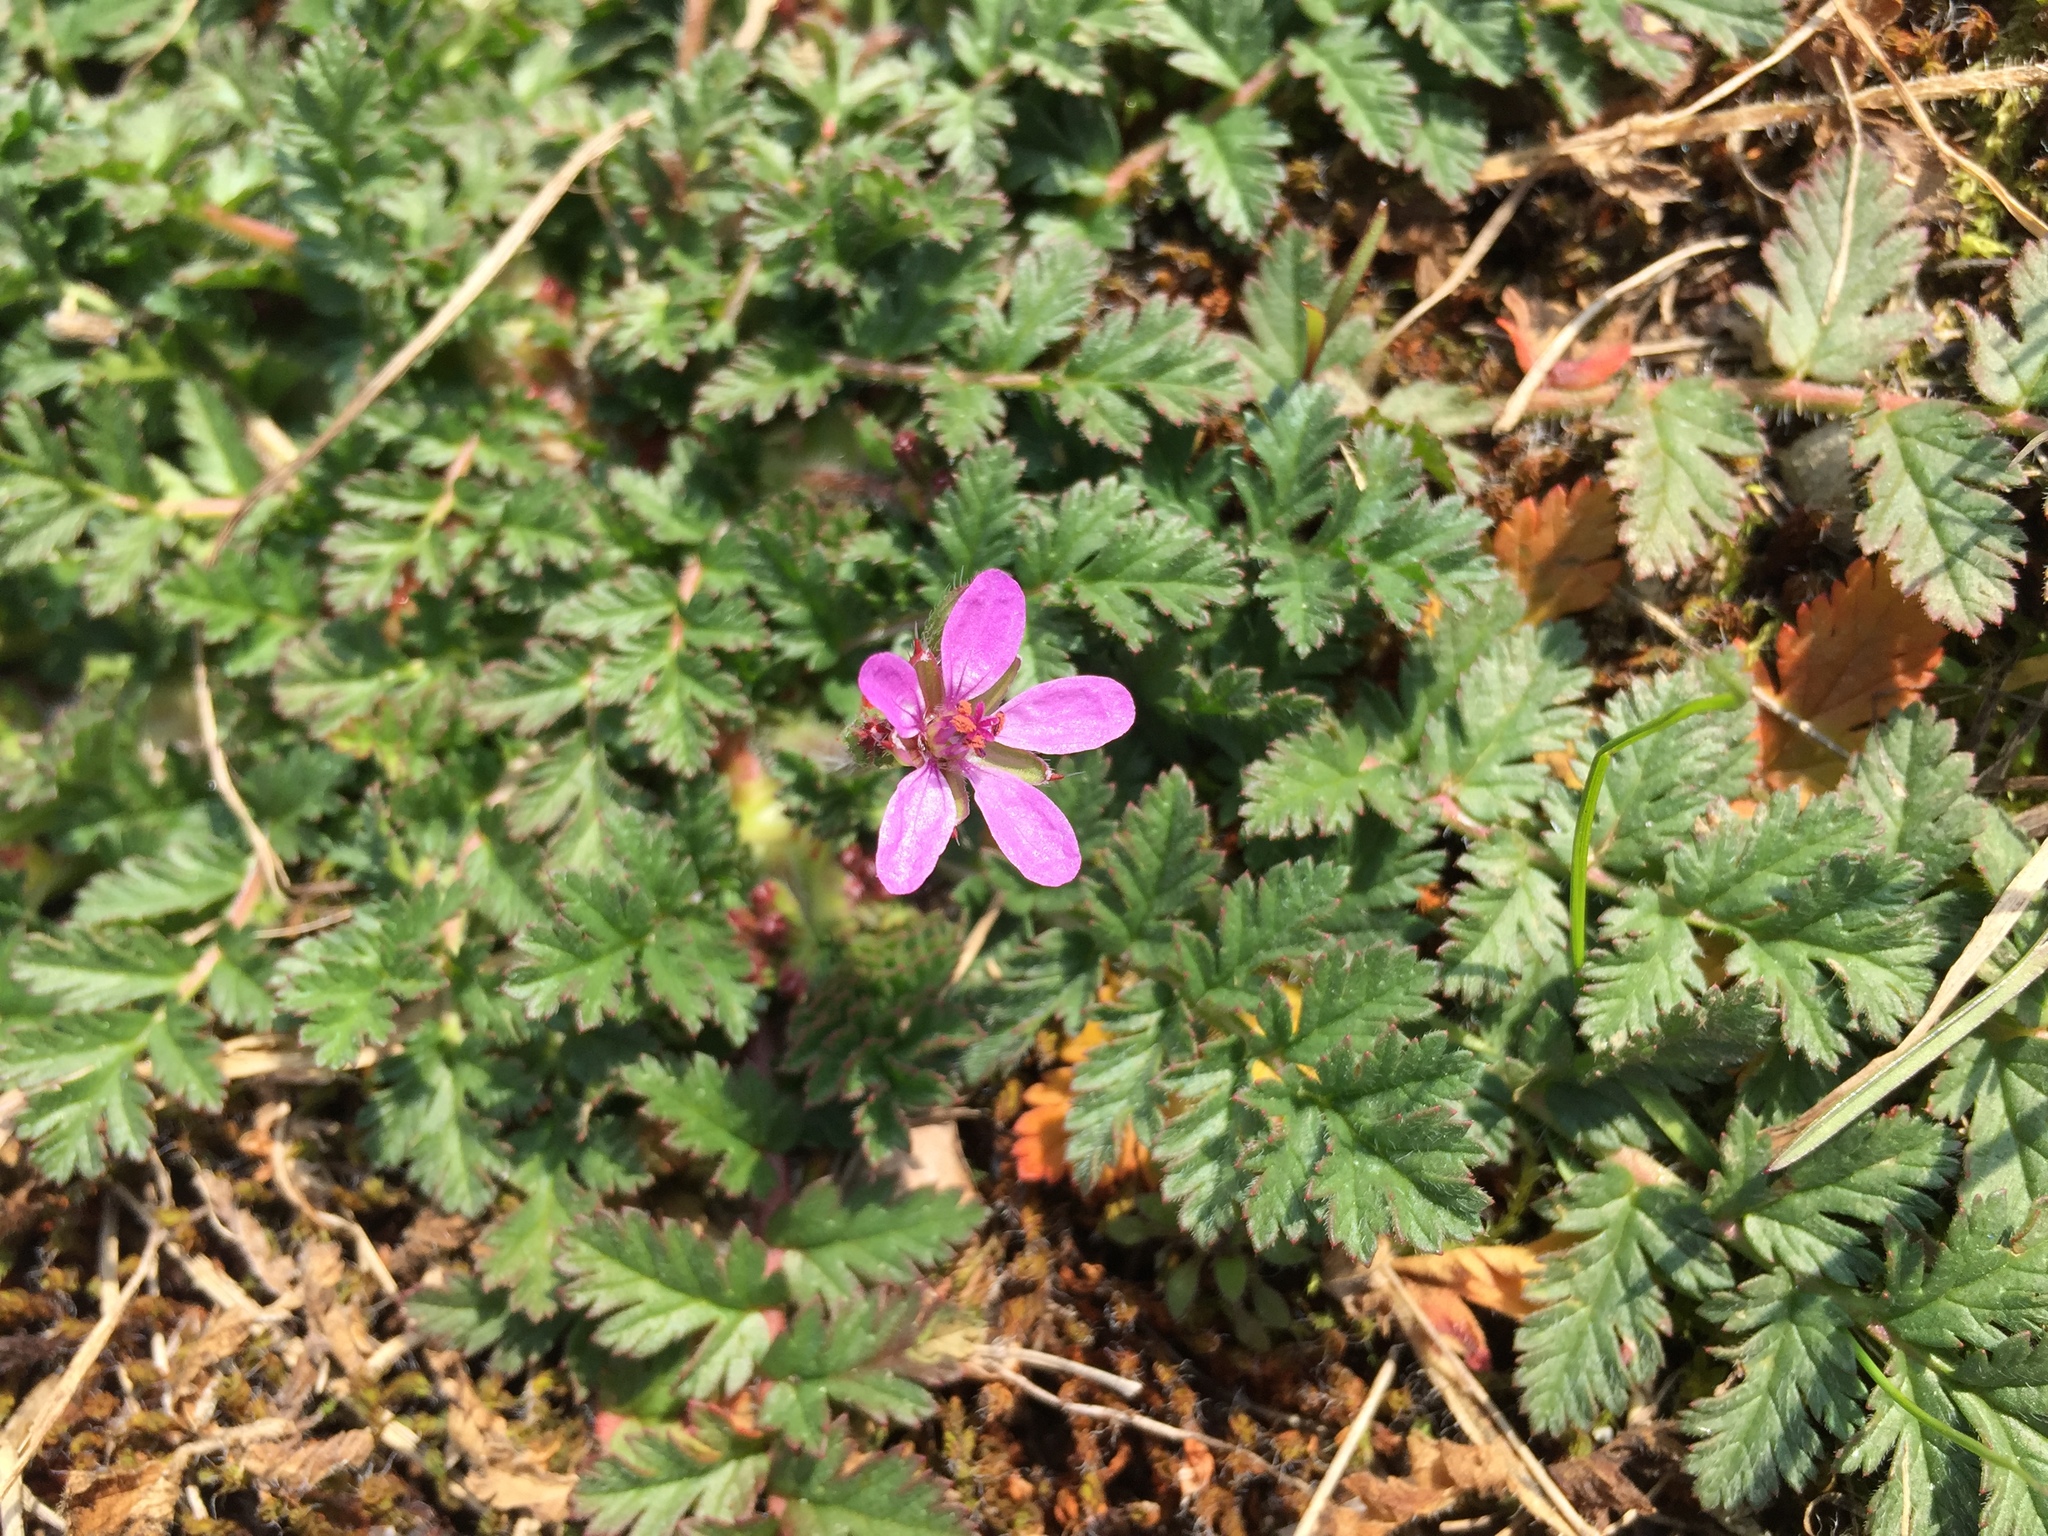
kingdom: Plantae
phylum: Tracheophyta
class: Magnoliopsida
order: Geraniales
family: Geraniaceae
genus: Erodium
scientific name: Erodium cicutarium
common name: Common stork's-bill
